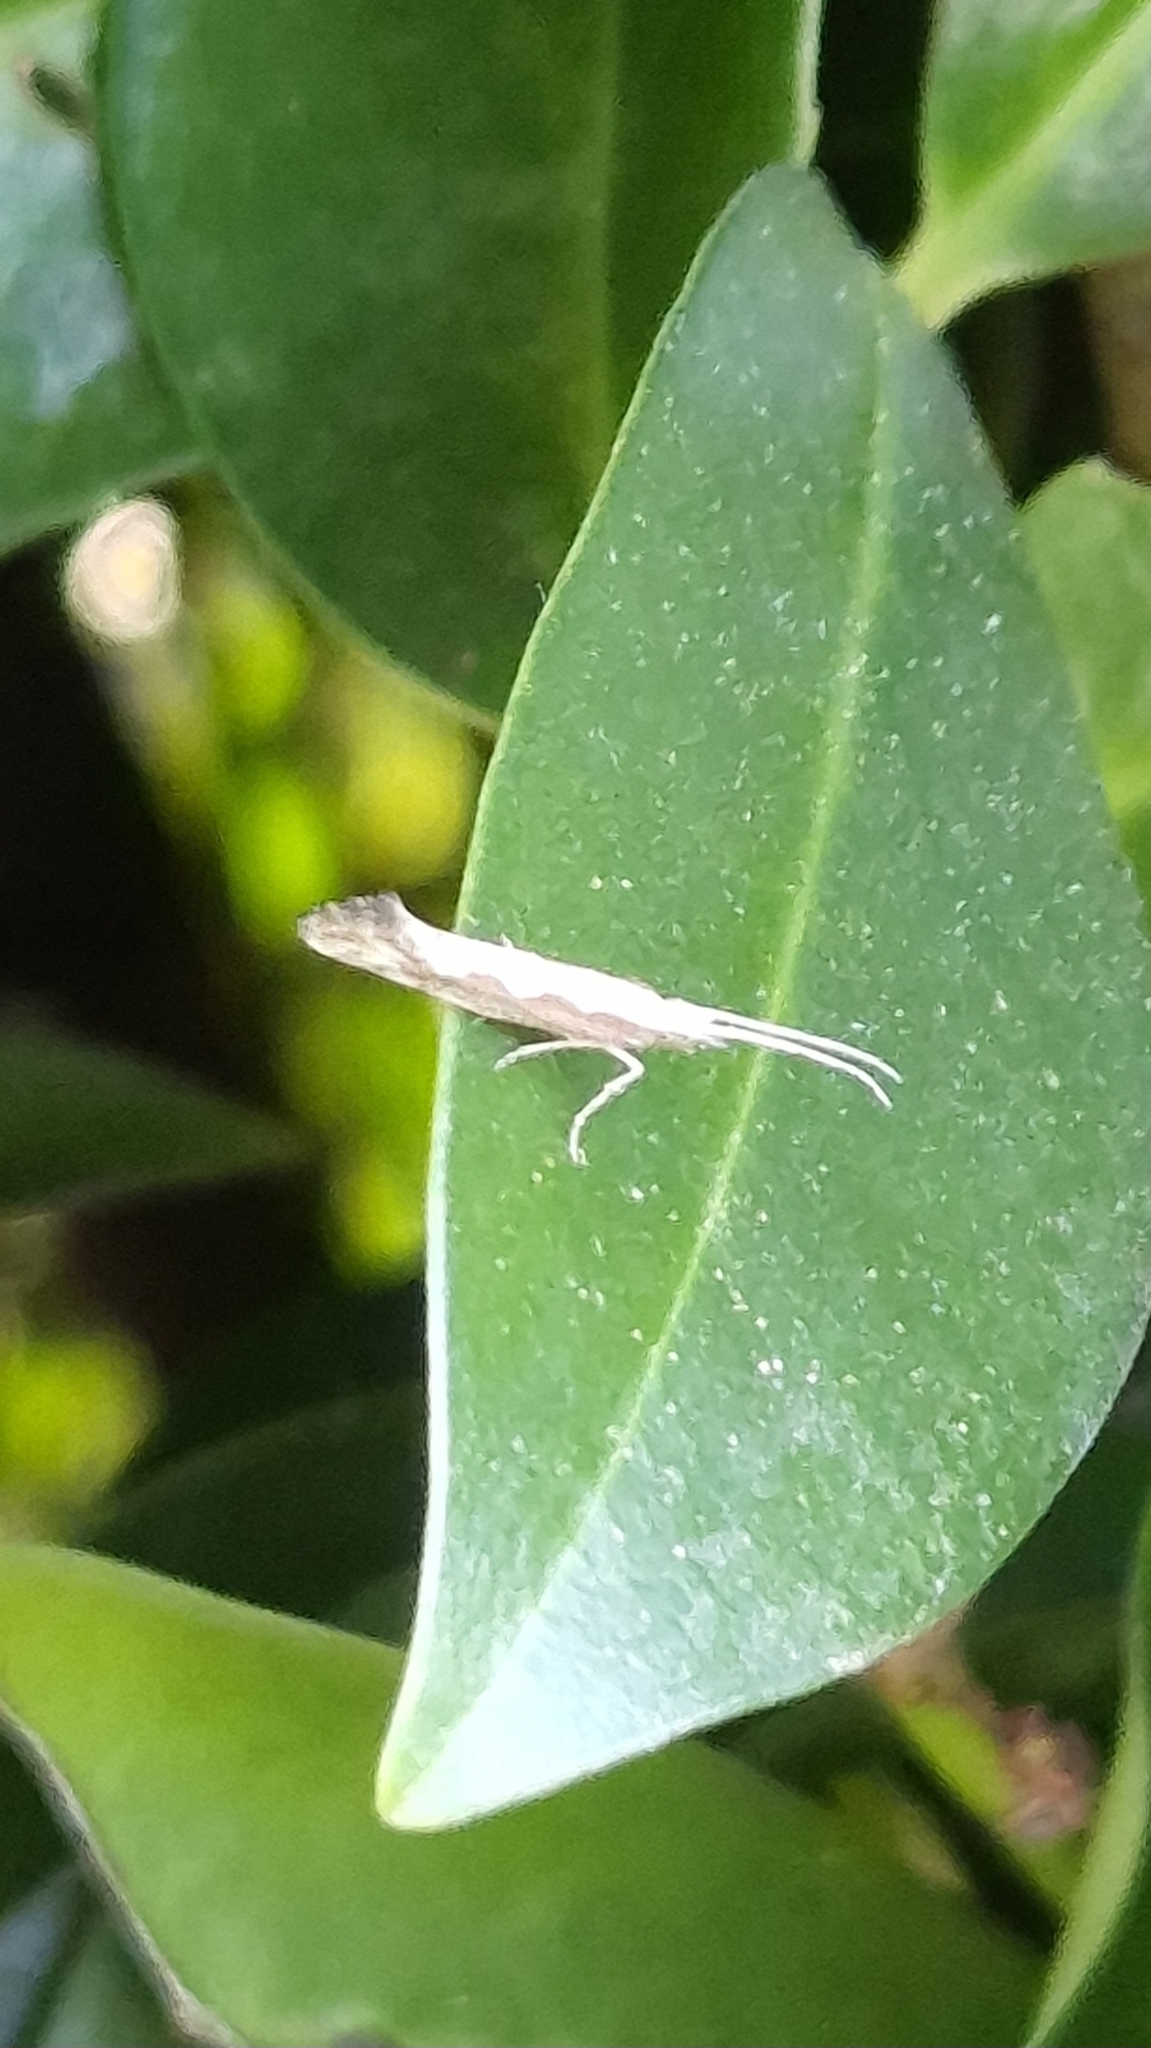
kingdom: Animalia
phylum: Arthropoda
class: Insecta
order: Lepidoptera
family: Plutellidae
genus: Plutella
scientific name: Plutella xylostella
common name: Diamond-back moth
